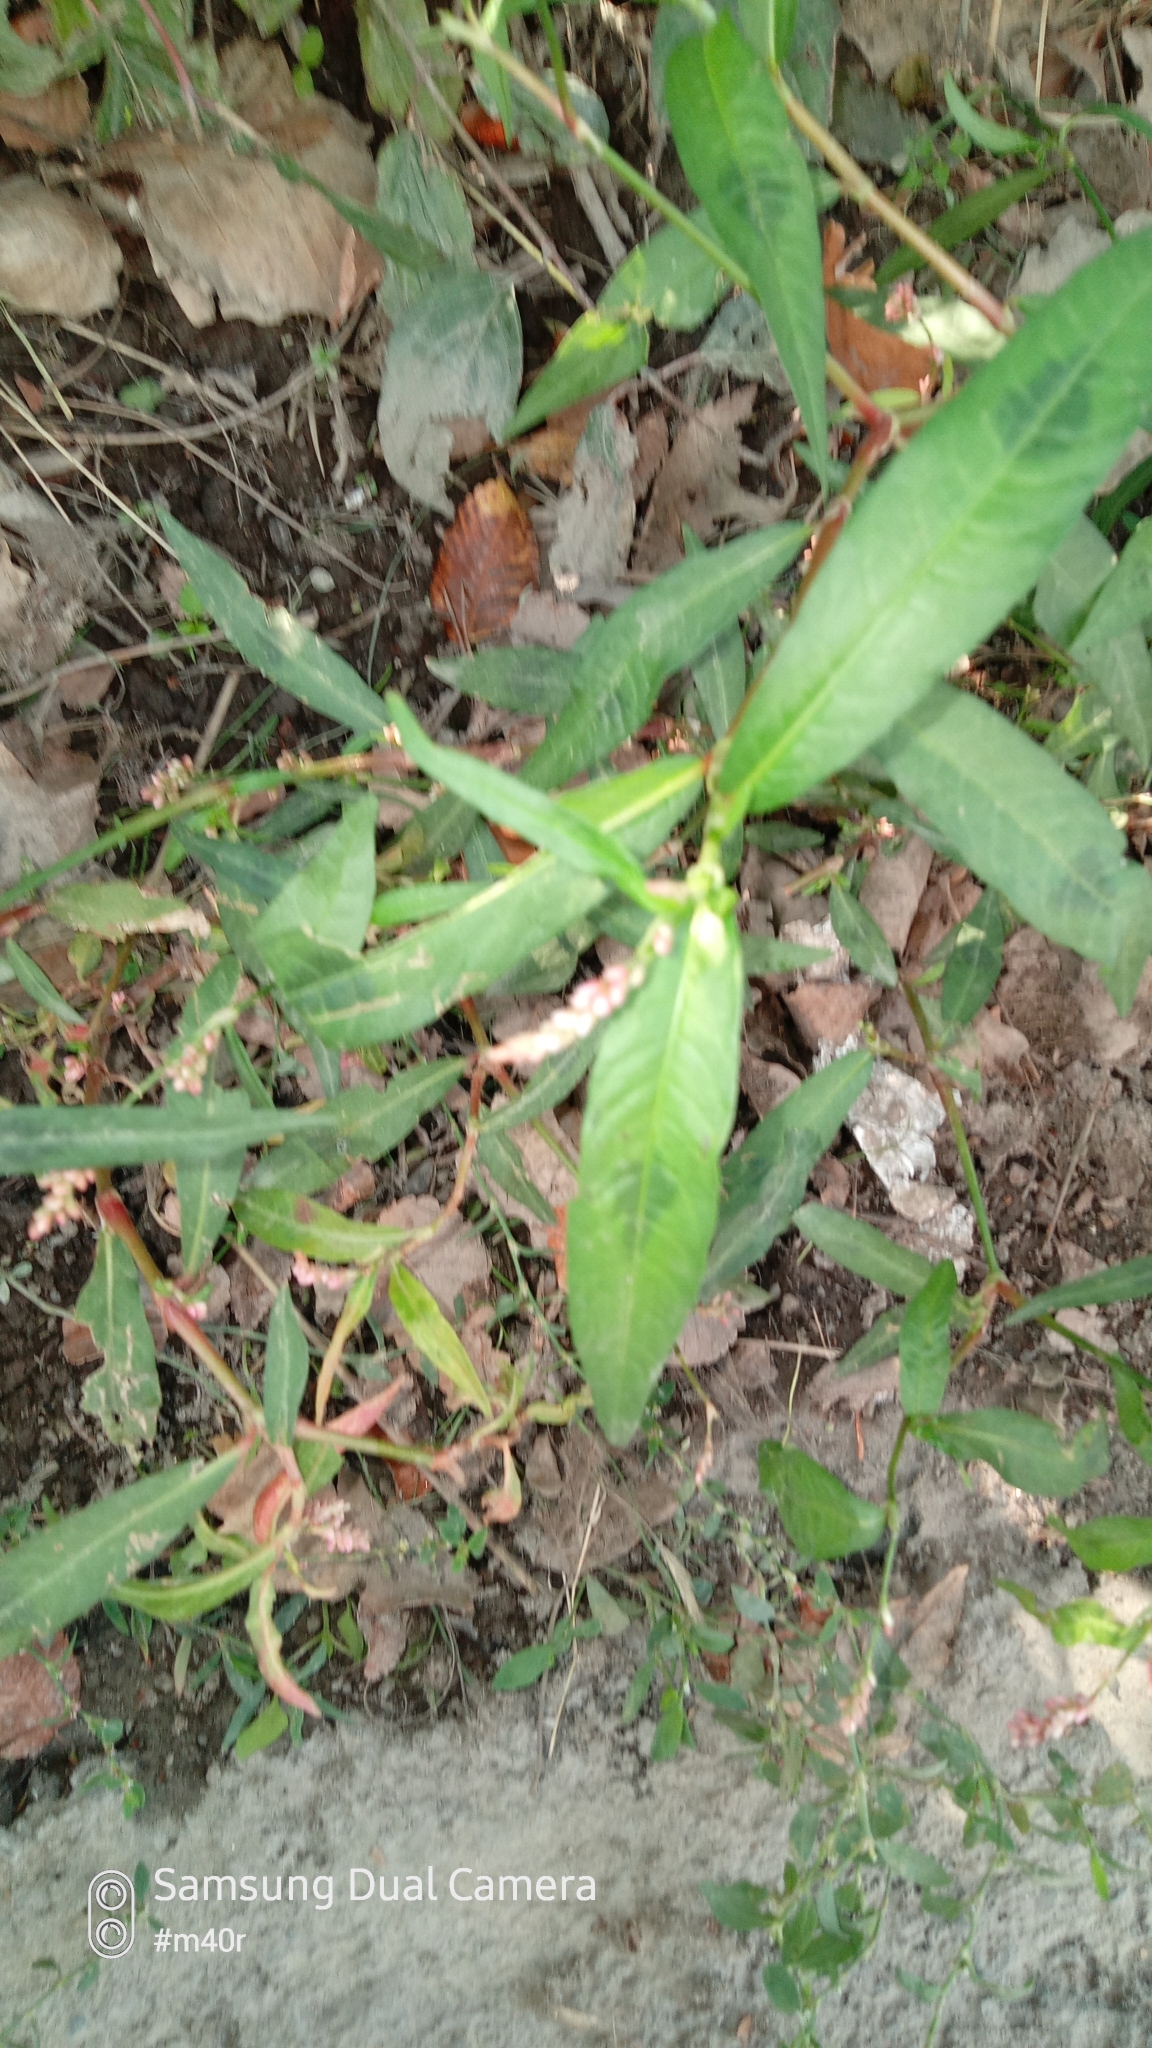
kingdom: Plantae
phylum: Tracheophyta
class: Magnoliopsida
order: Caryophyllales
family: Polygonaceae
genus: Persicaria
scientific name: Persicaria hydropiper
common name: Water-pepper
